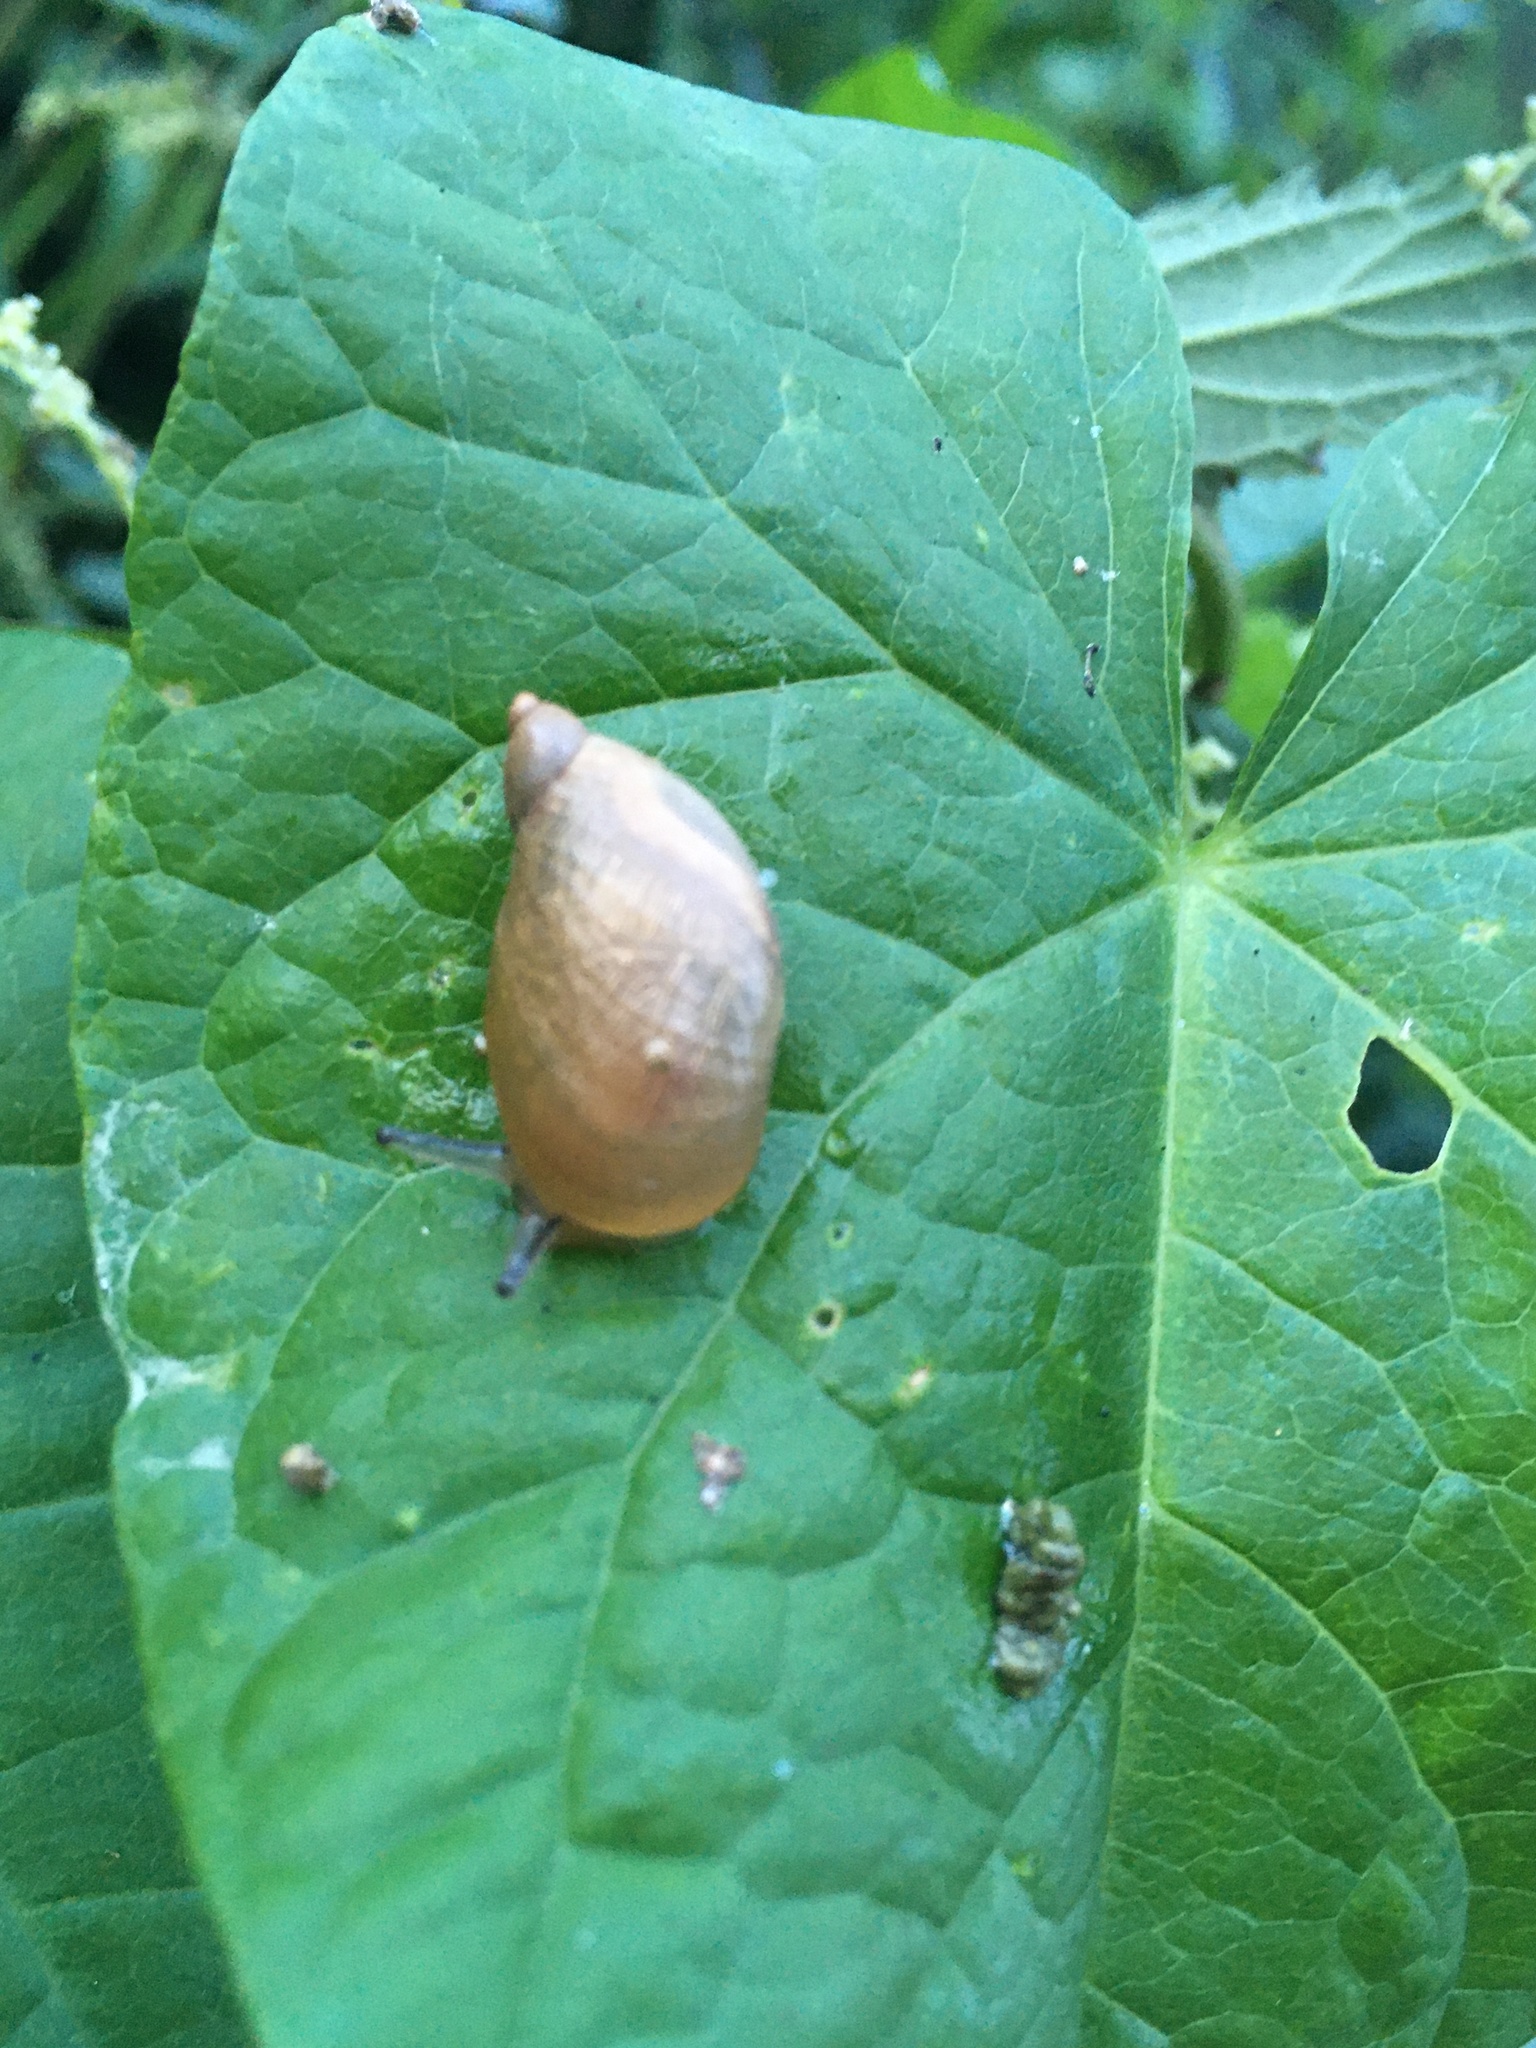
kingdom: Animalia
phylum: Mollusca
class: Gastropoda
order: Stylommatophora
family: Succineidae
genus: Succinea
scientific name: Succinea putris
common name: European ambersnail
